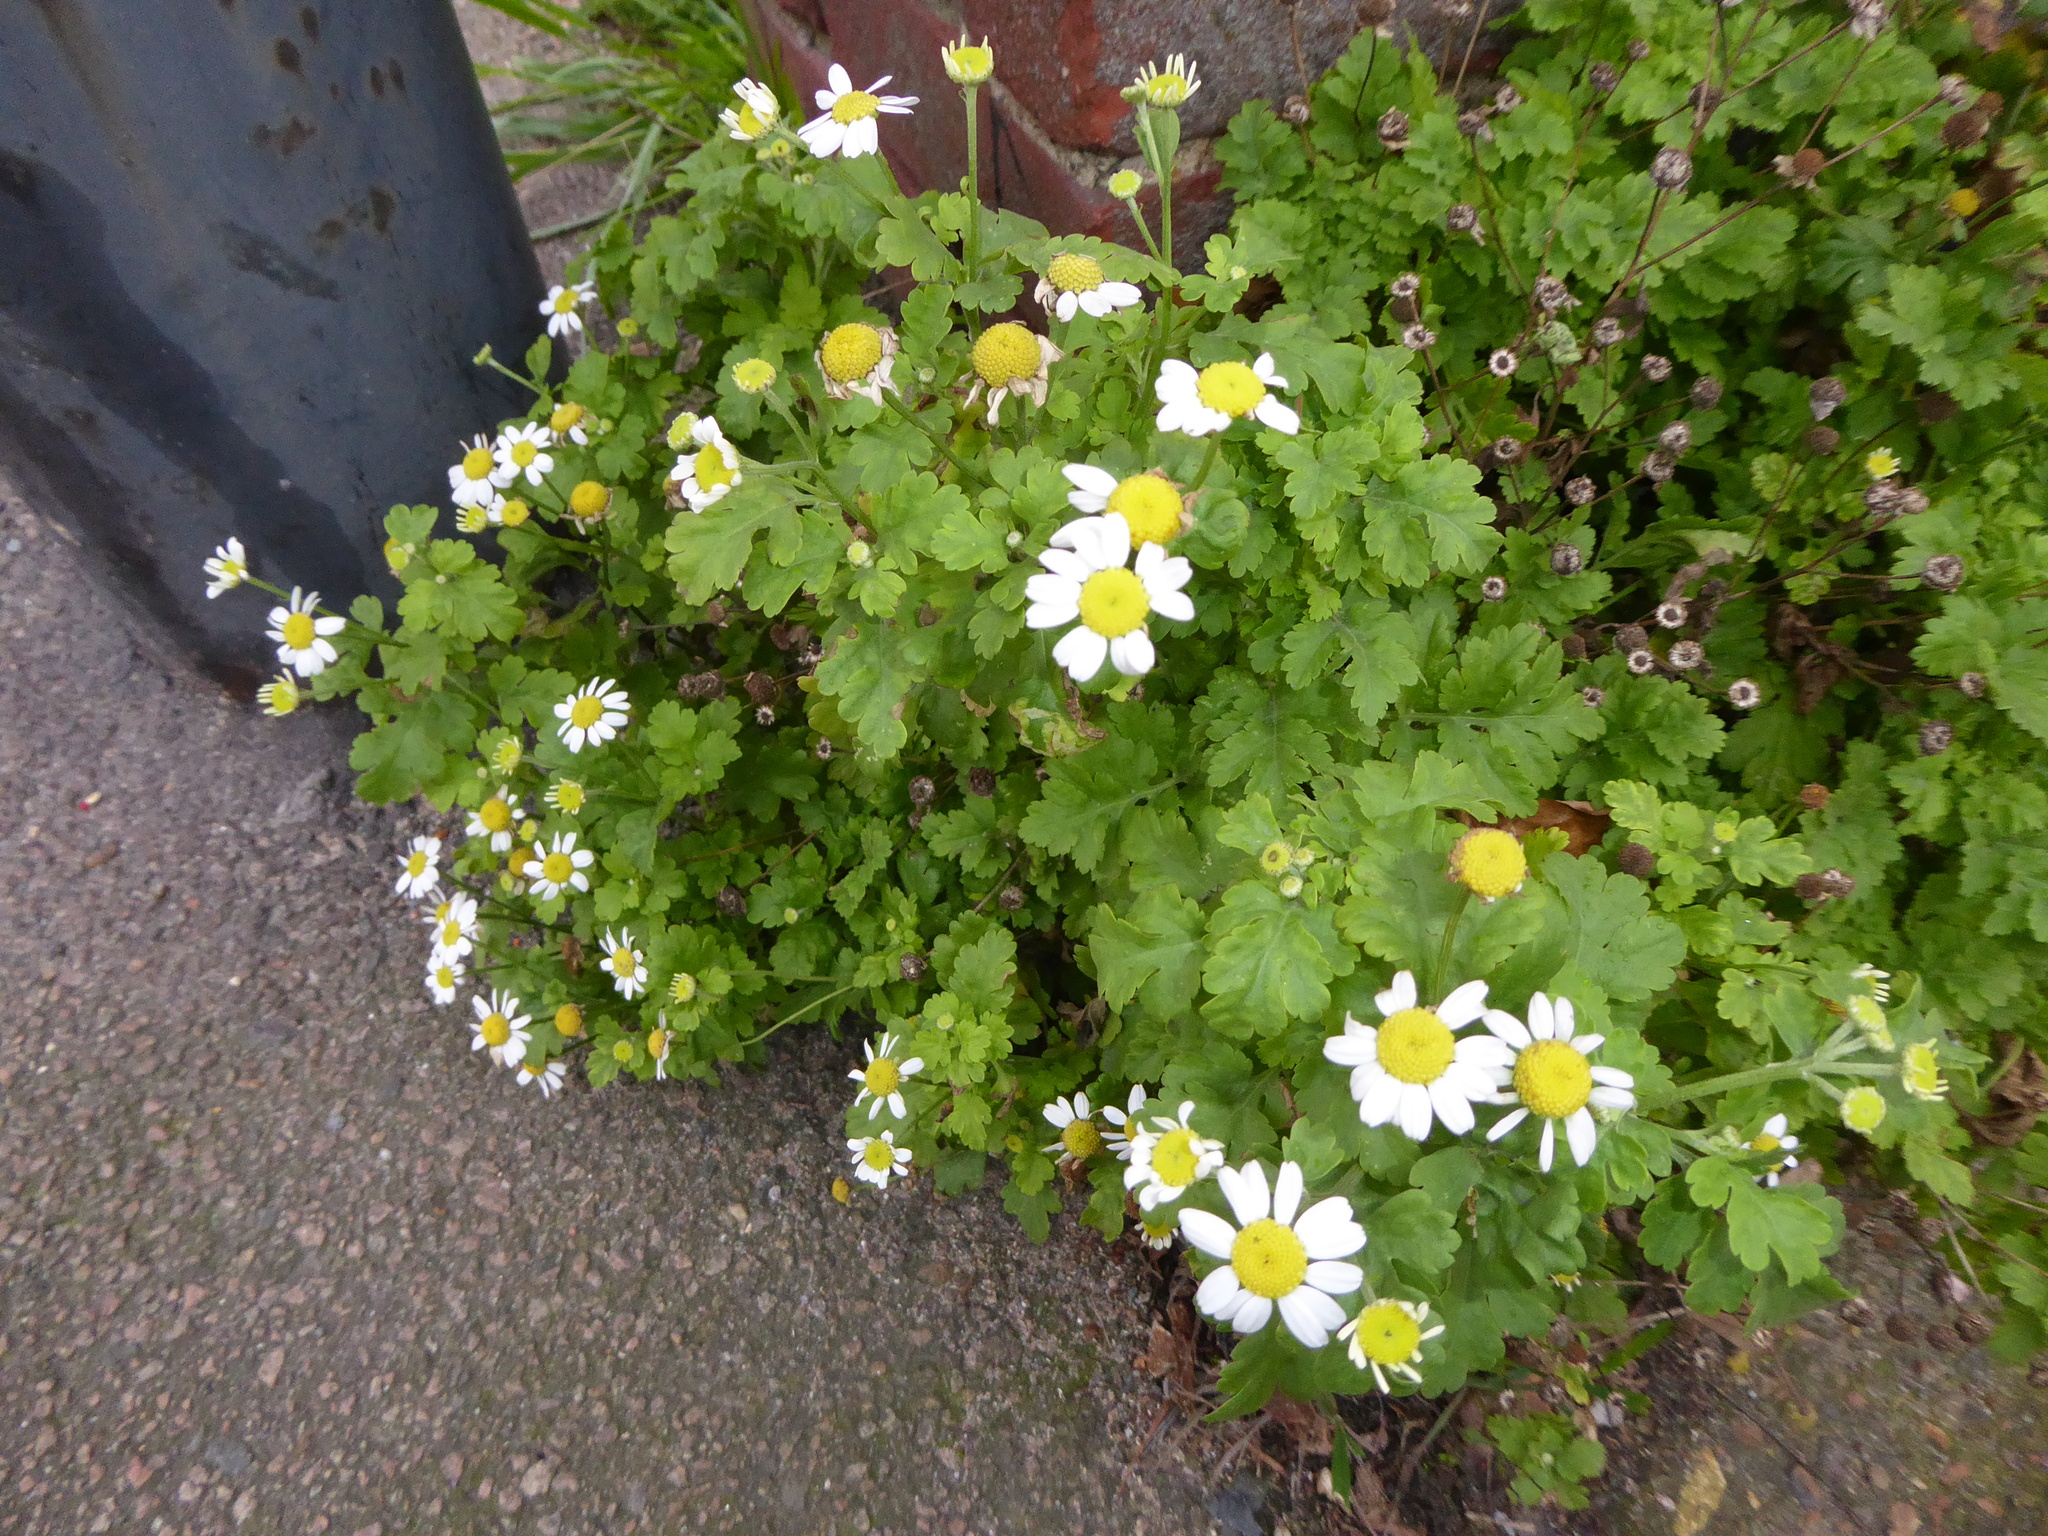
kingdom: Plantae
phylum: Tracheophyta
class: Magnoliopsida
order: Asterales
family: Asteraceae
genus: Tanacetum
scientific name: Tanacetum parthenium
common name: Feverfew
